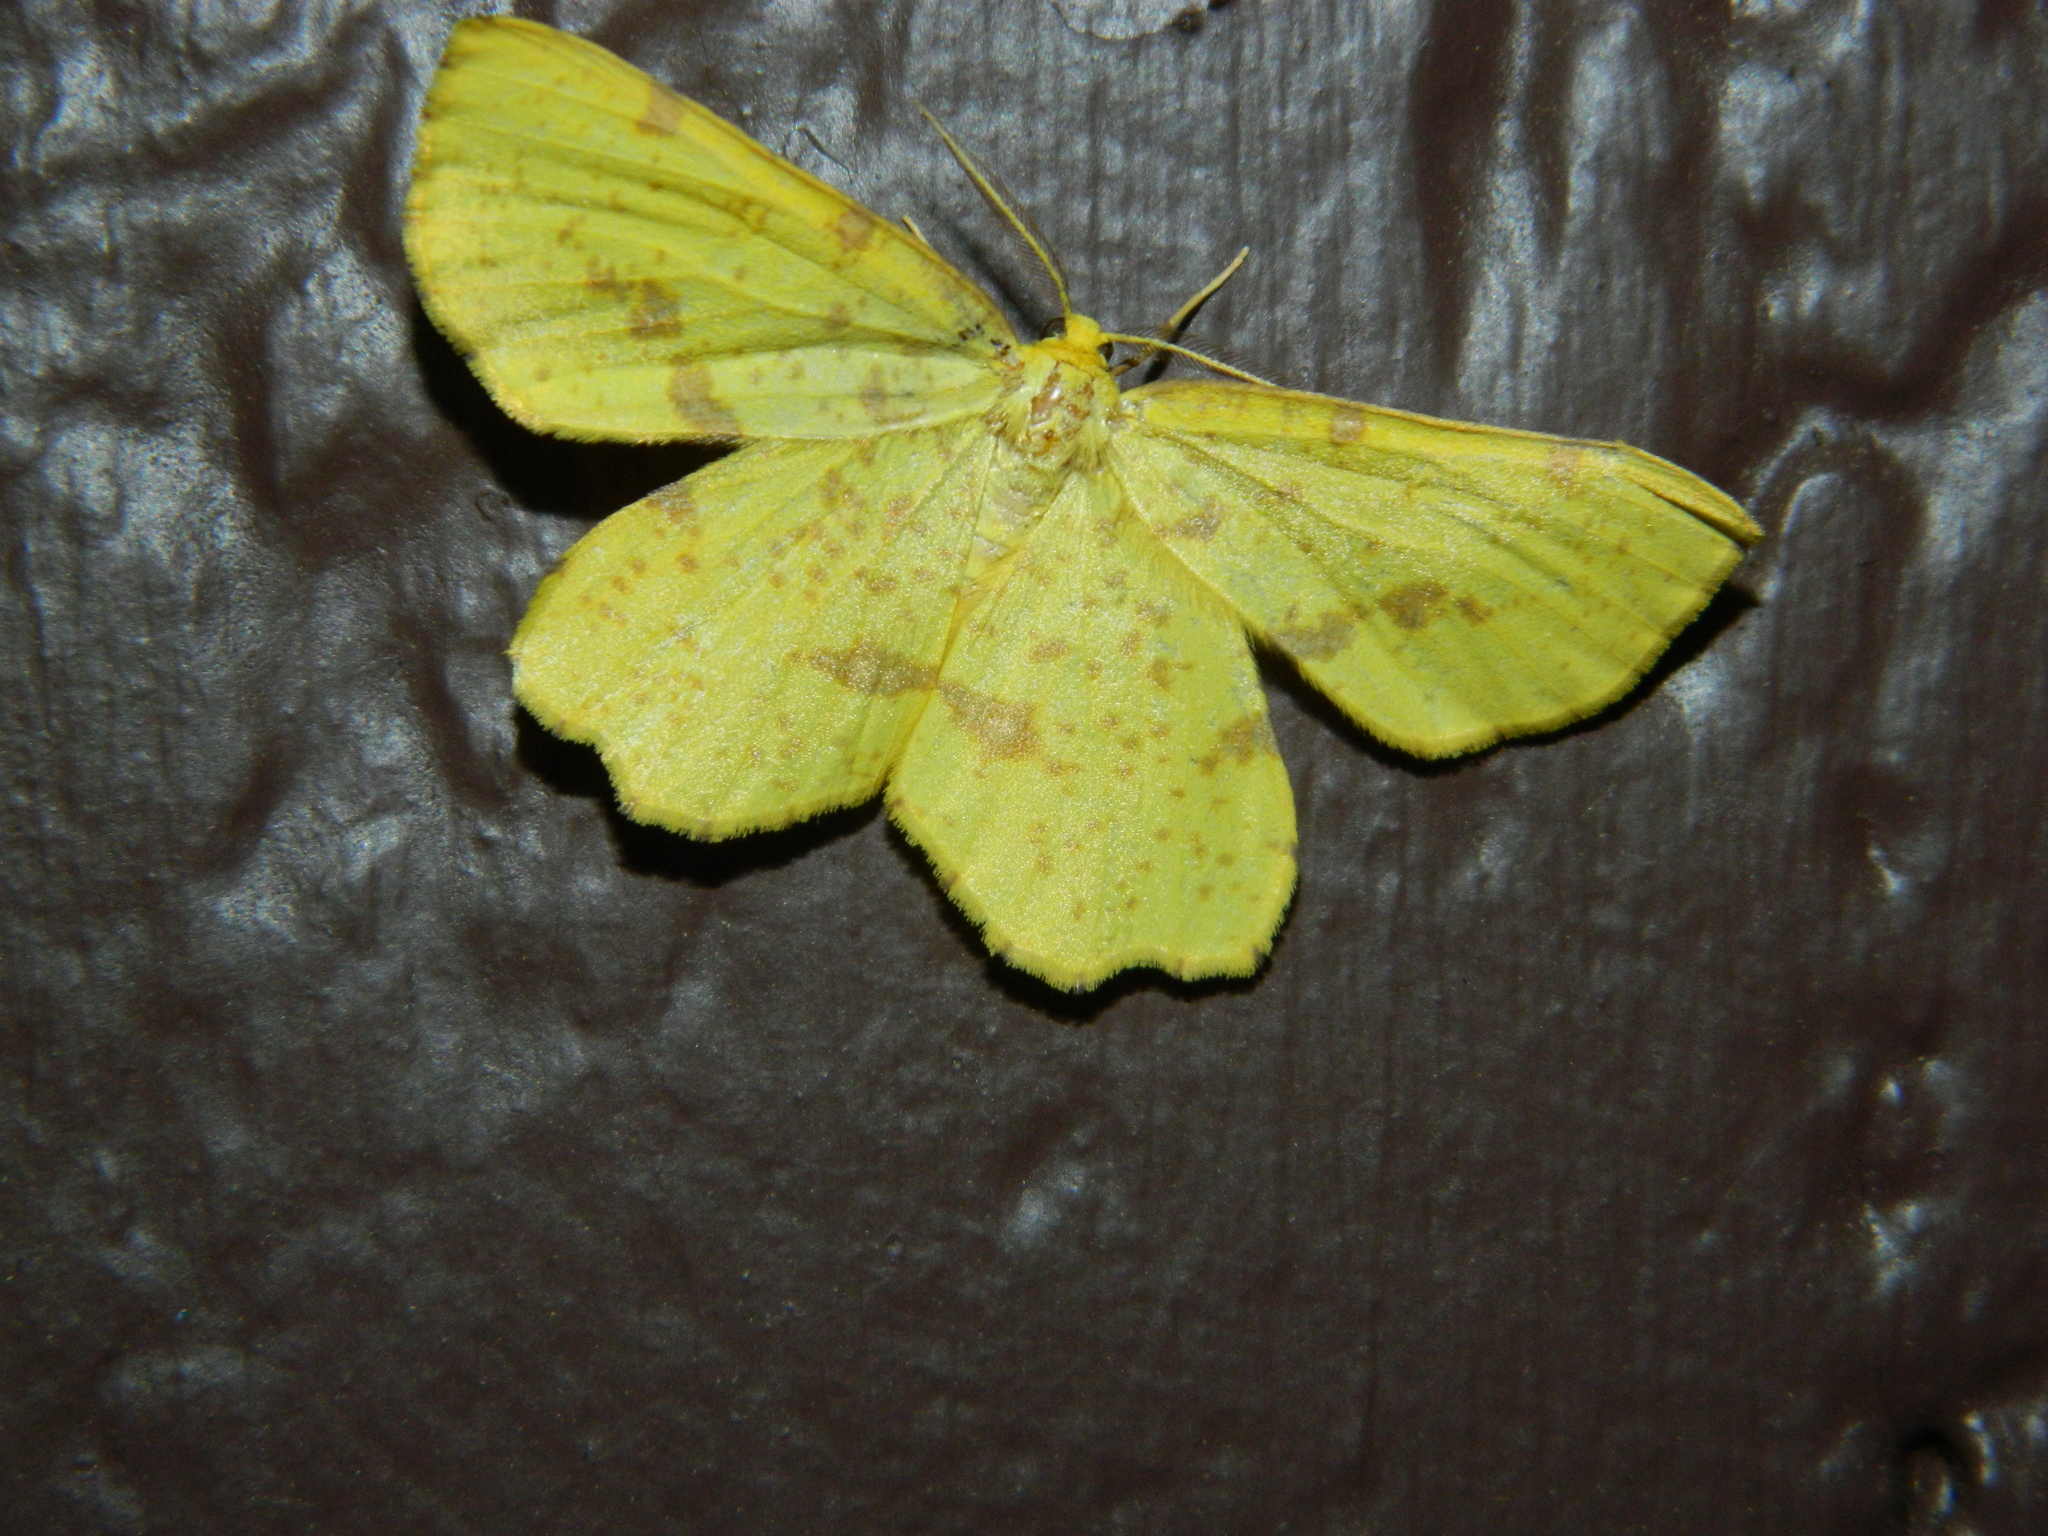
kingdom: Animalia
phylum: Arthropoda
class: Insecta
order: Lepidoptera
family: Geometridae
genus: Xanthotype
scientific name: Xanthotype
